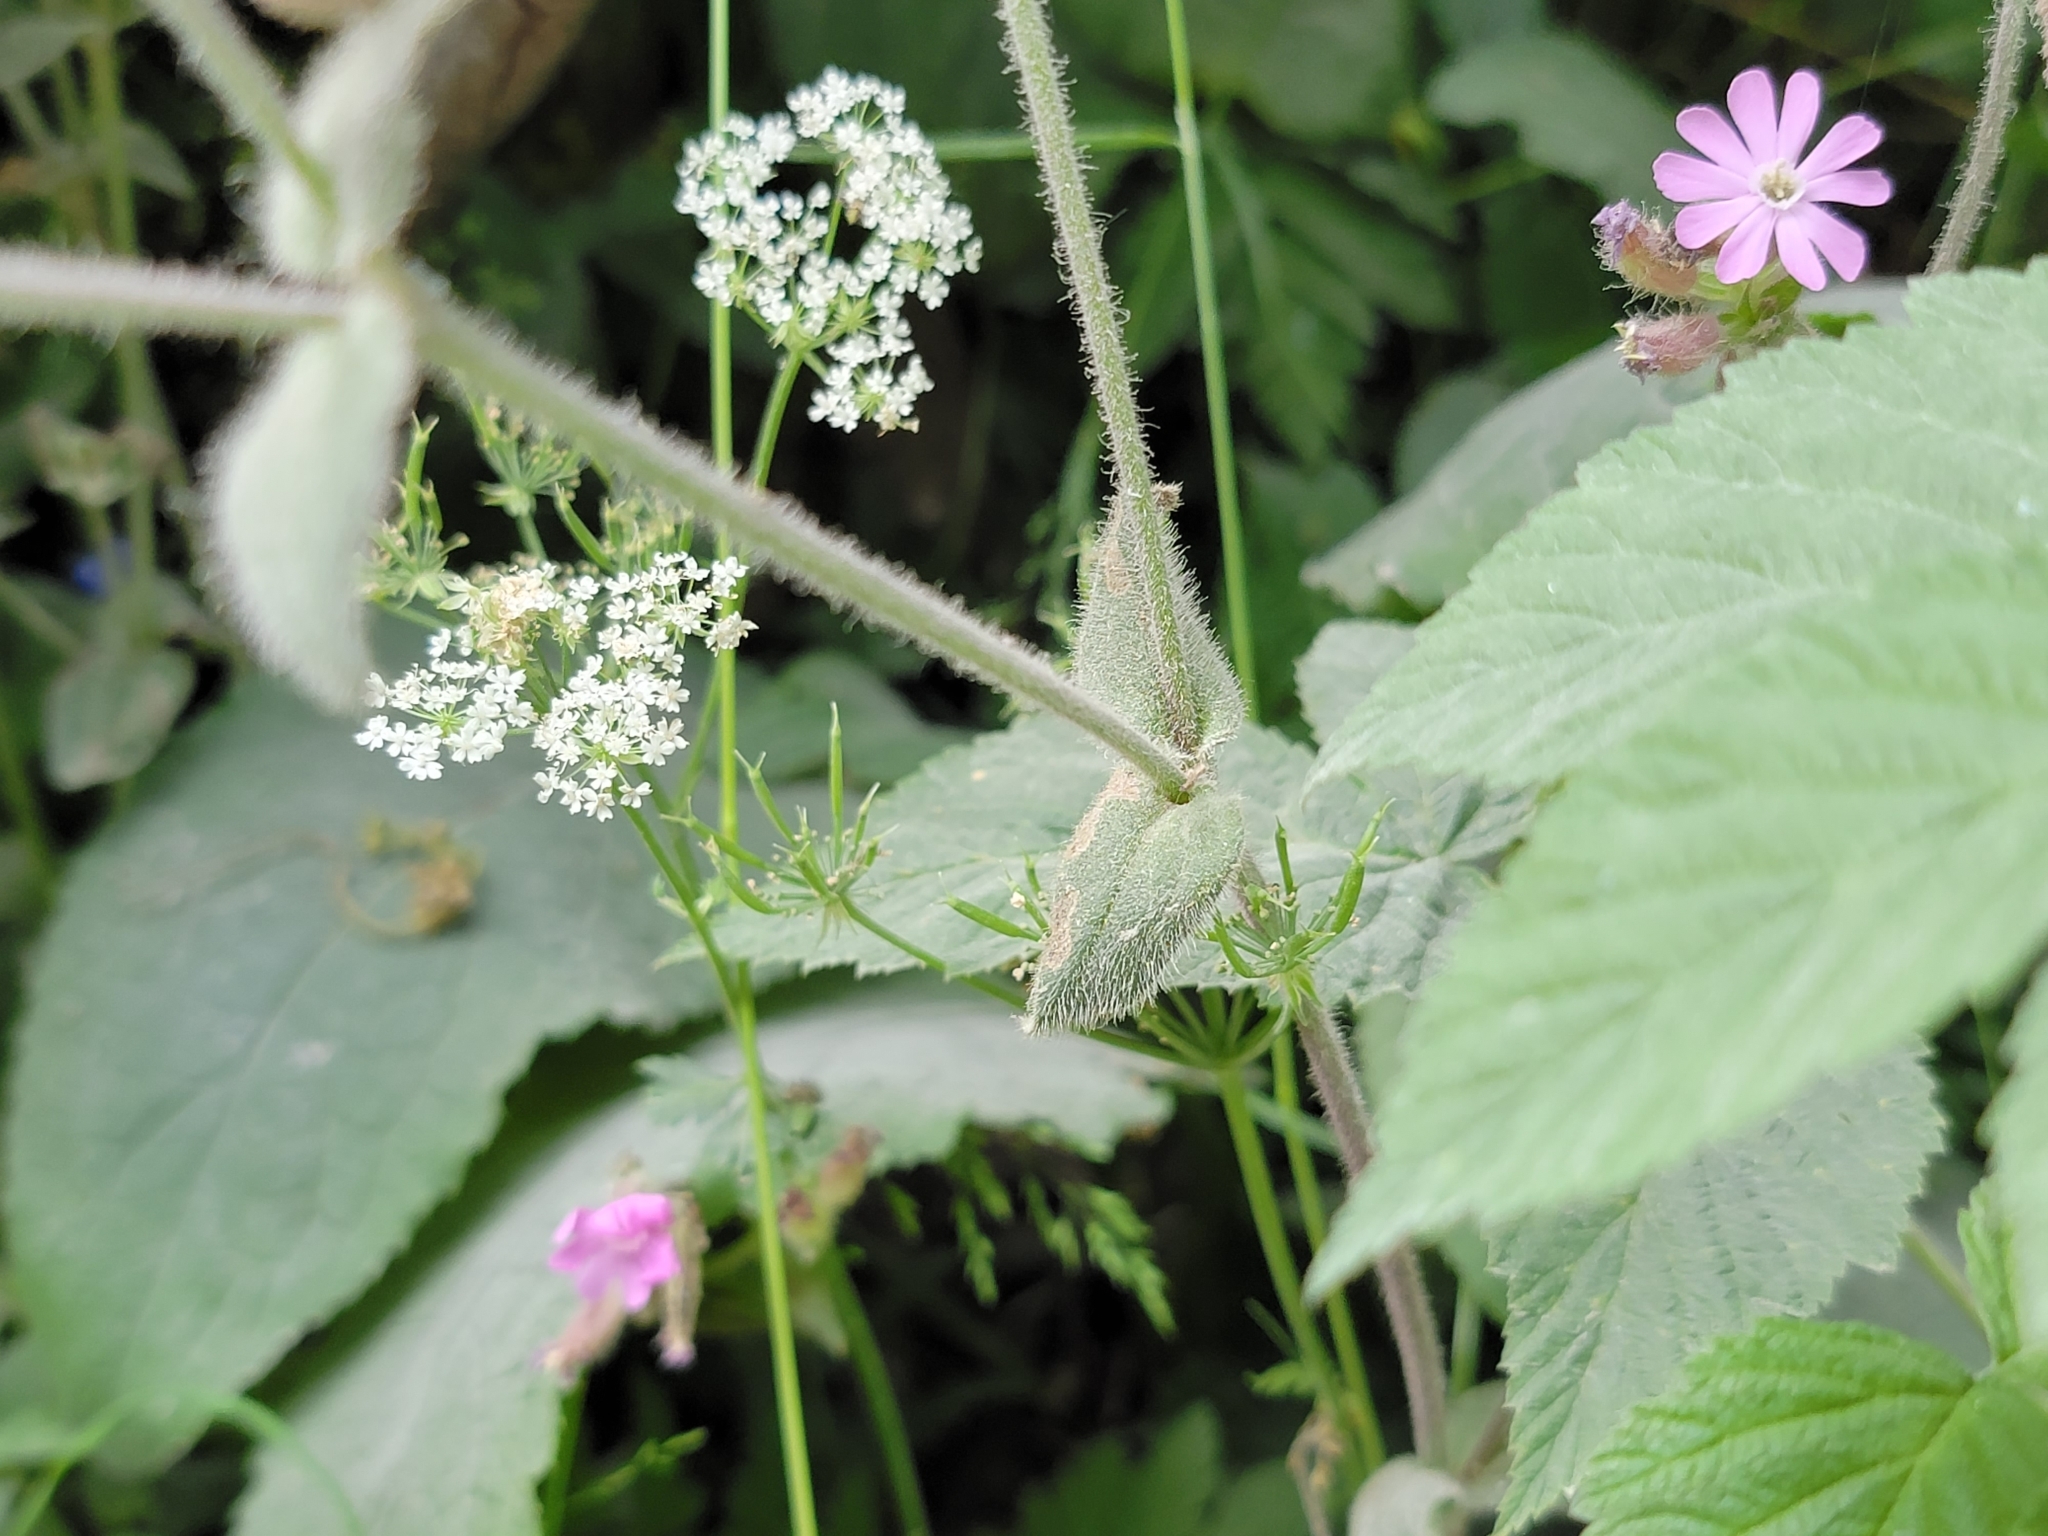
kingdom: Plantae
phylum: Tracheophyta
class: Magnoliopsida
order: Caryophyllales
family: Caryophyllaceae
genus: Silene
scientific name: Silene dioica
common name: Red campion
